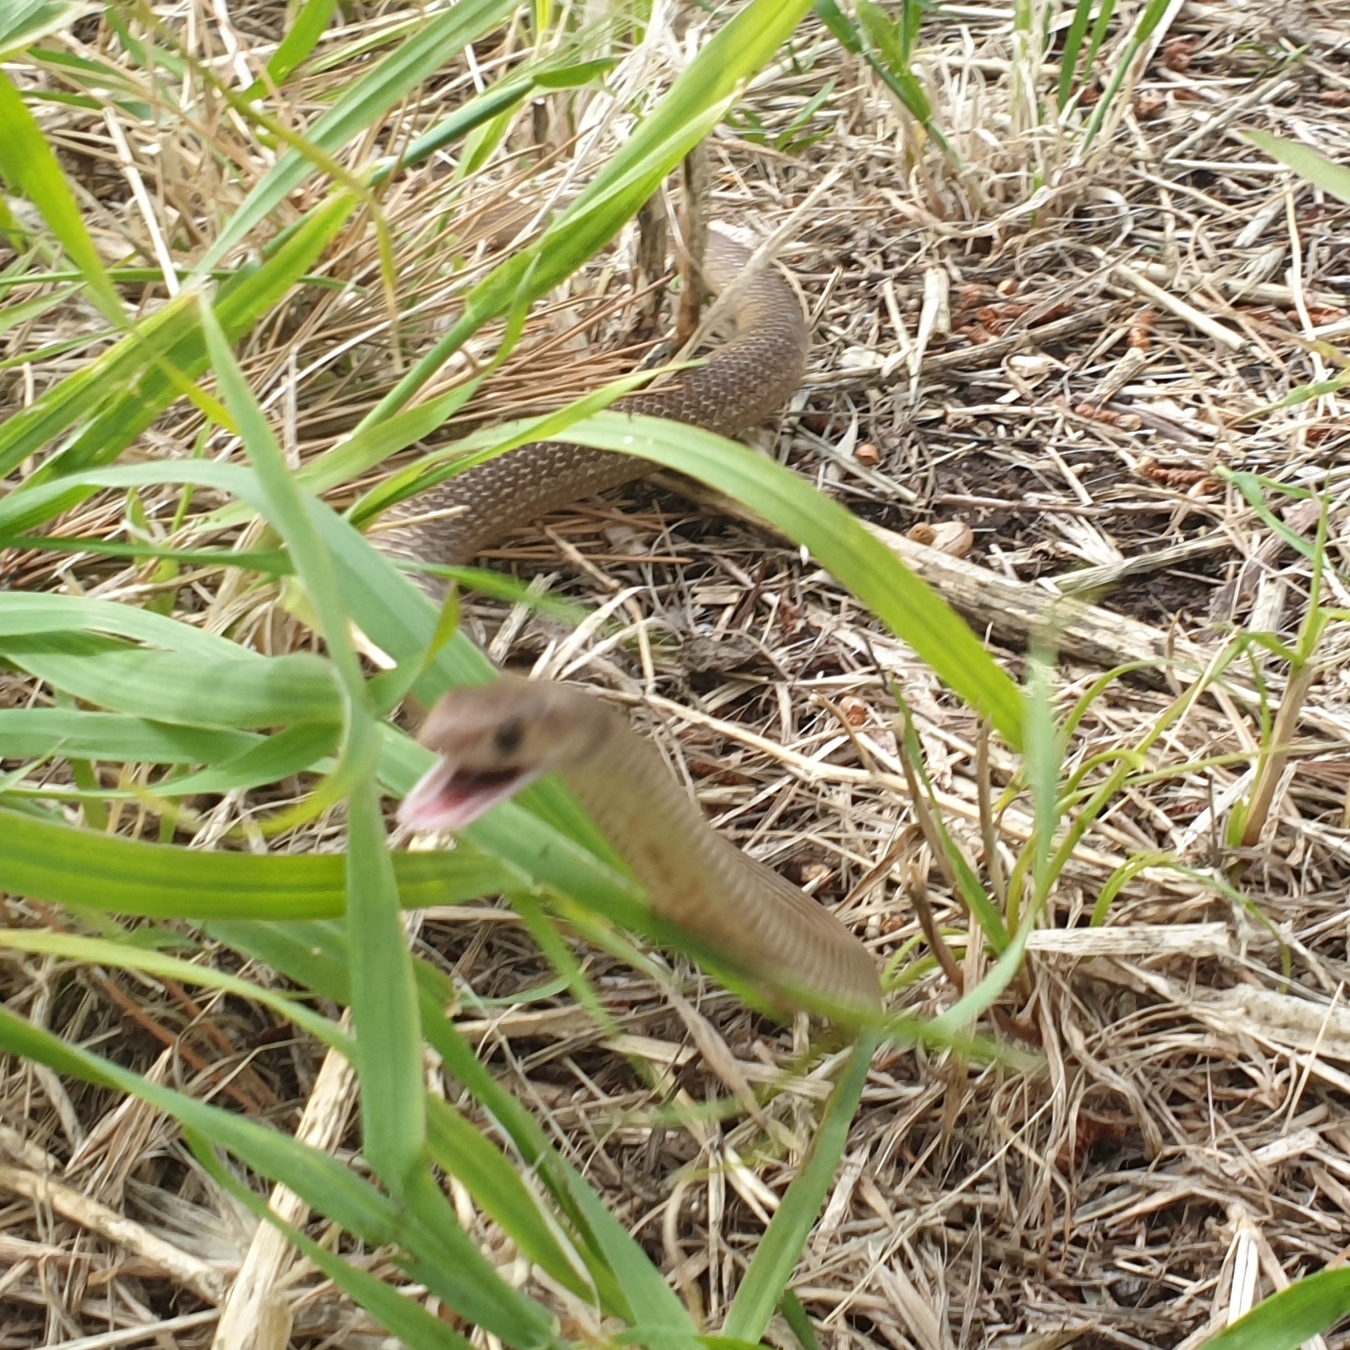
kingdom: Animalia
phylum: Chordata
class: Squamata
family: Elapidae
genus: Pseudonaja
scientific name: Pseudonaja textilis
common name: Eastern brown snake
